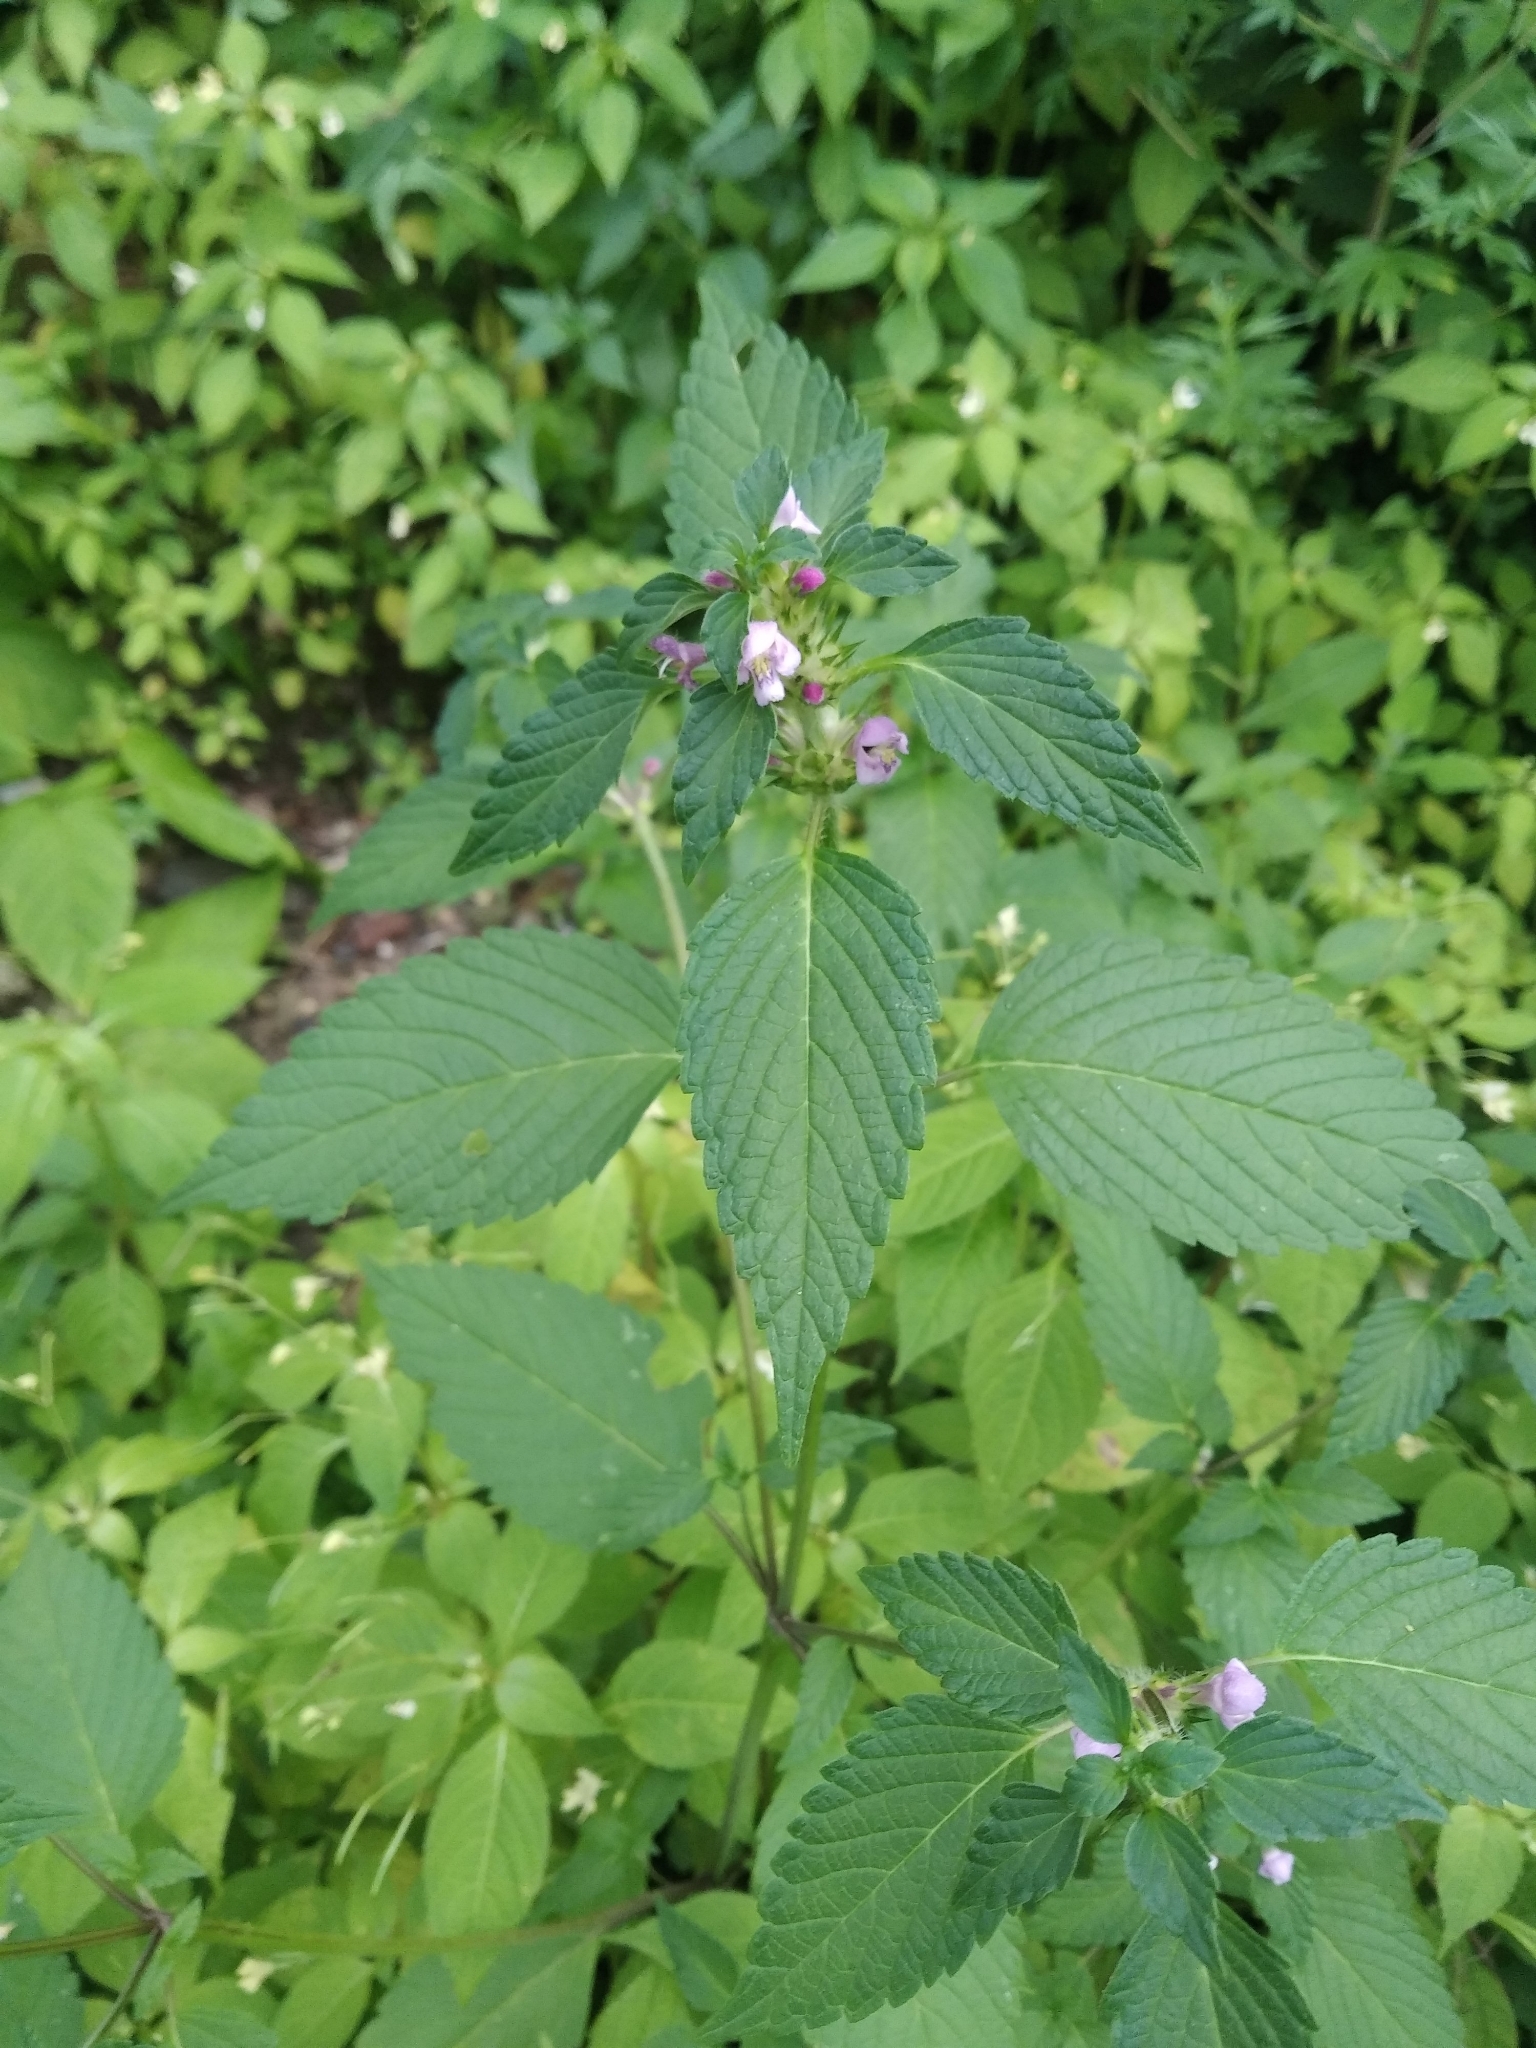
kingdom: Plantae
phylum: Tracheophyta
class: Magnoliopsida
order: Lamiales
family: Lamiaceae
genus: Galeopsis
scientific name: Galeopsis tetrahit
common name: Common hemp-nettle
